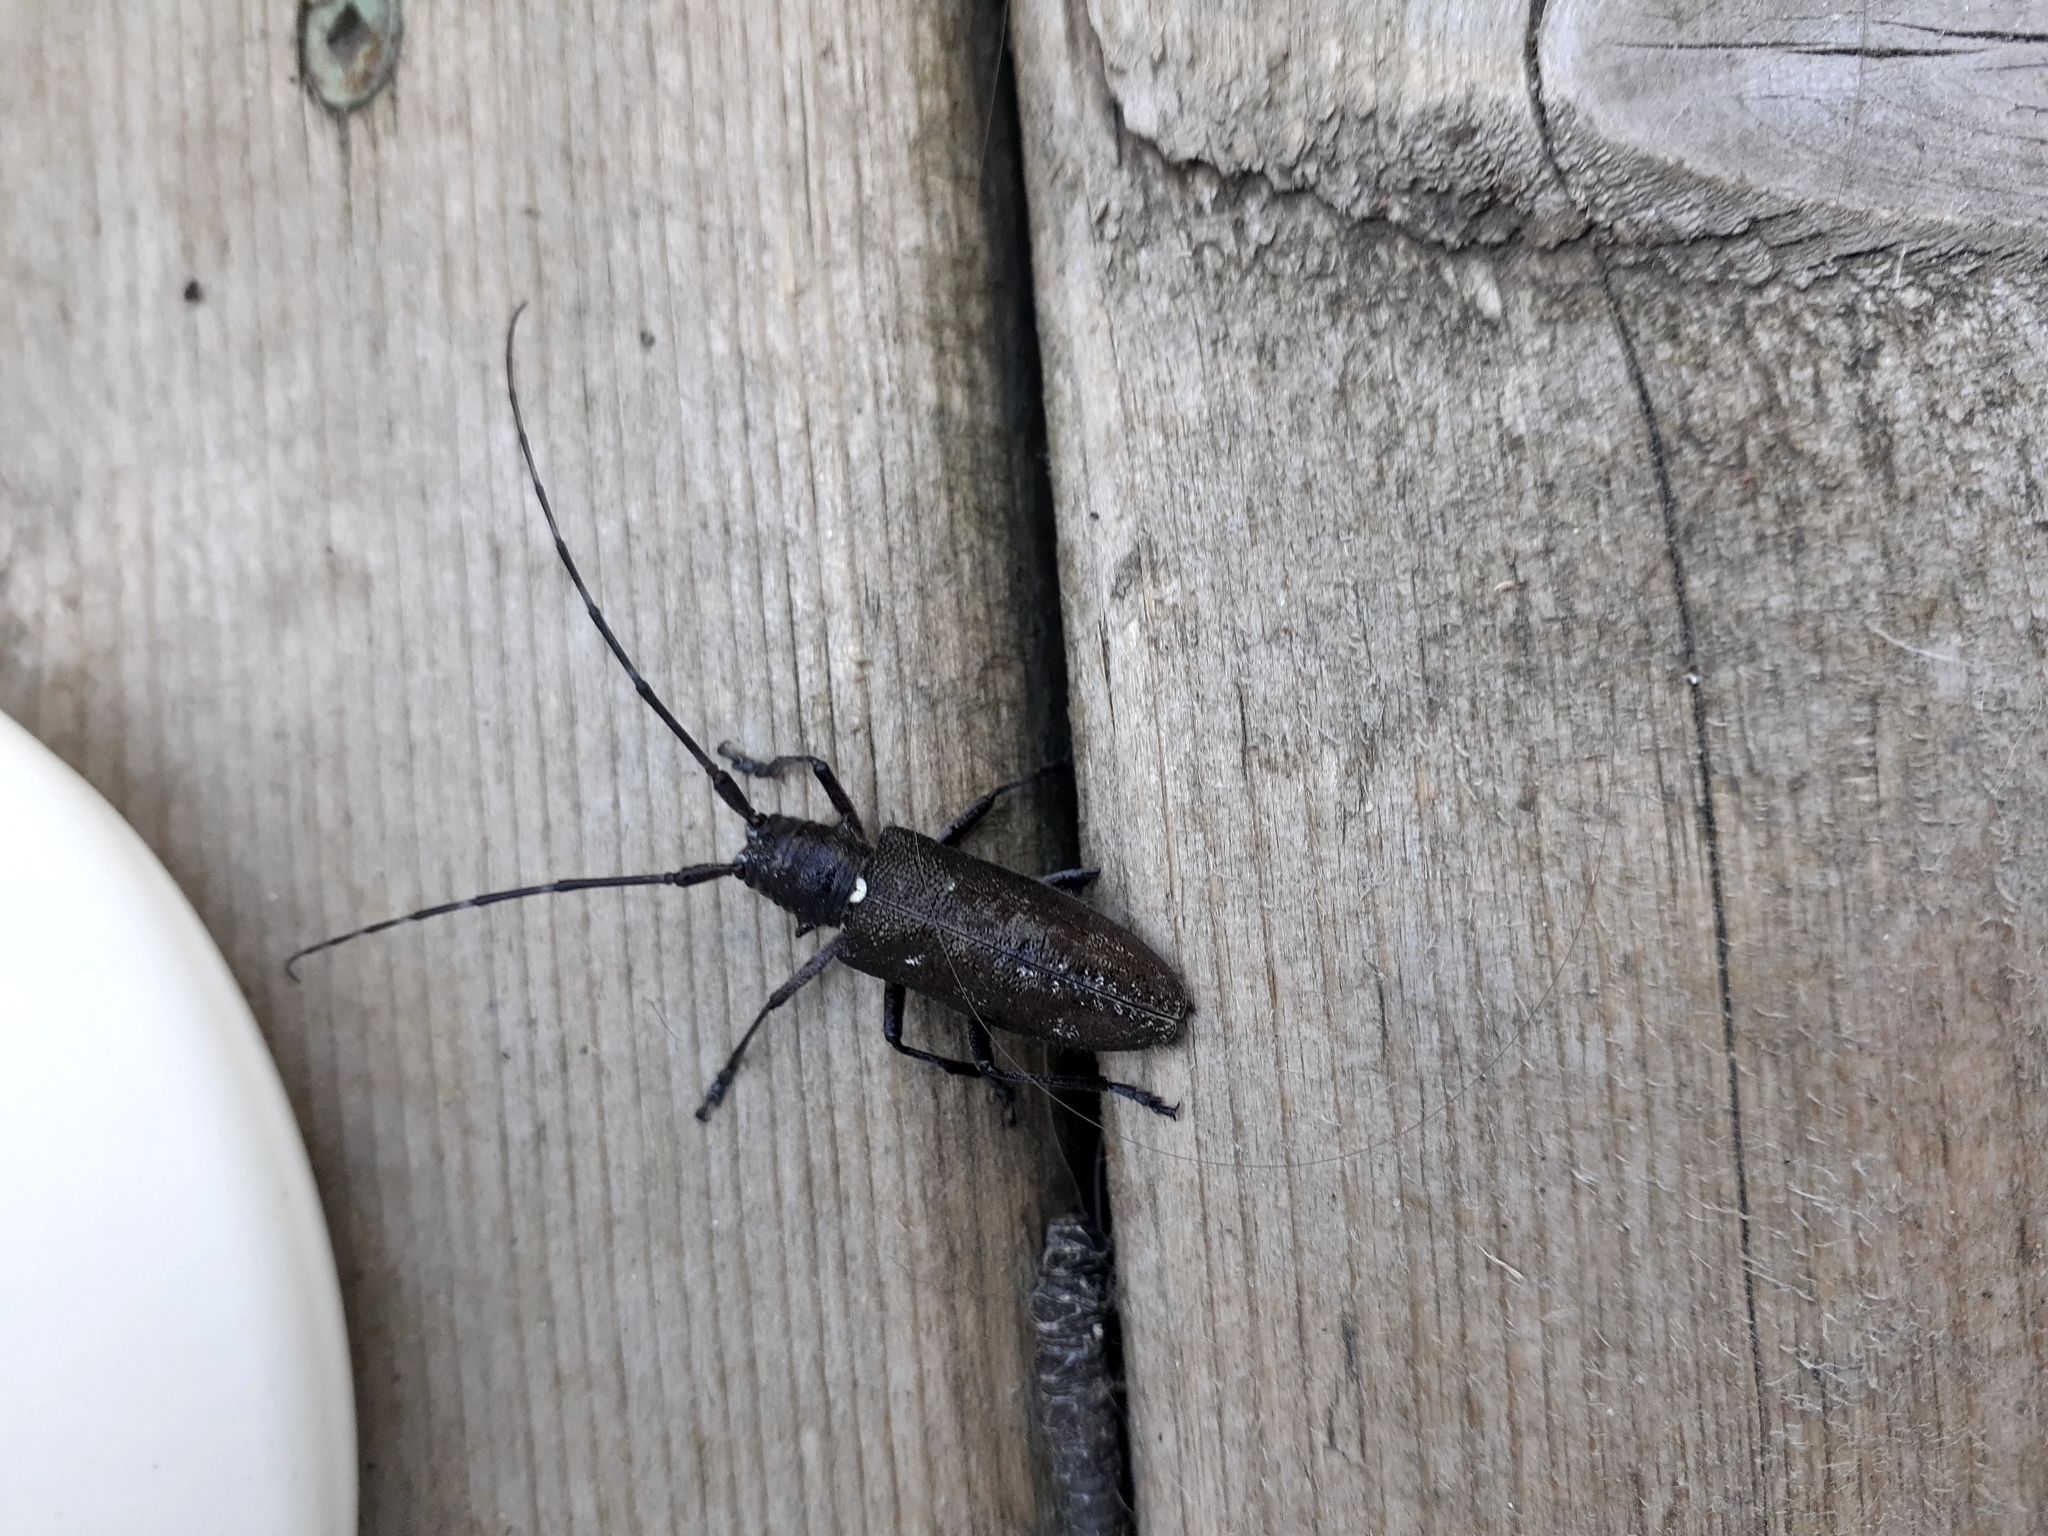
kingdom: Animalia
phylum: Arthropoda
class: Insecta
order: Coleoptera
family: Cerambycidae
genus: Monochamus
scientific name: Monochamus scutellatus
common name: White-spotted sawyer beetle
